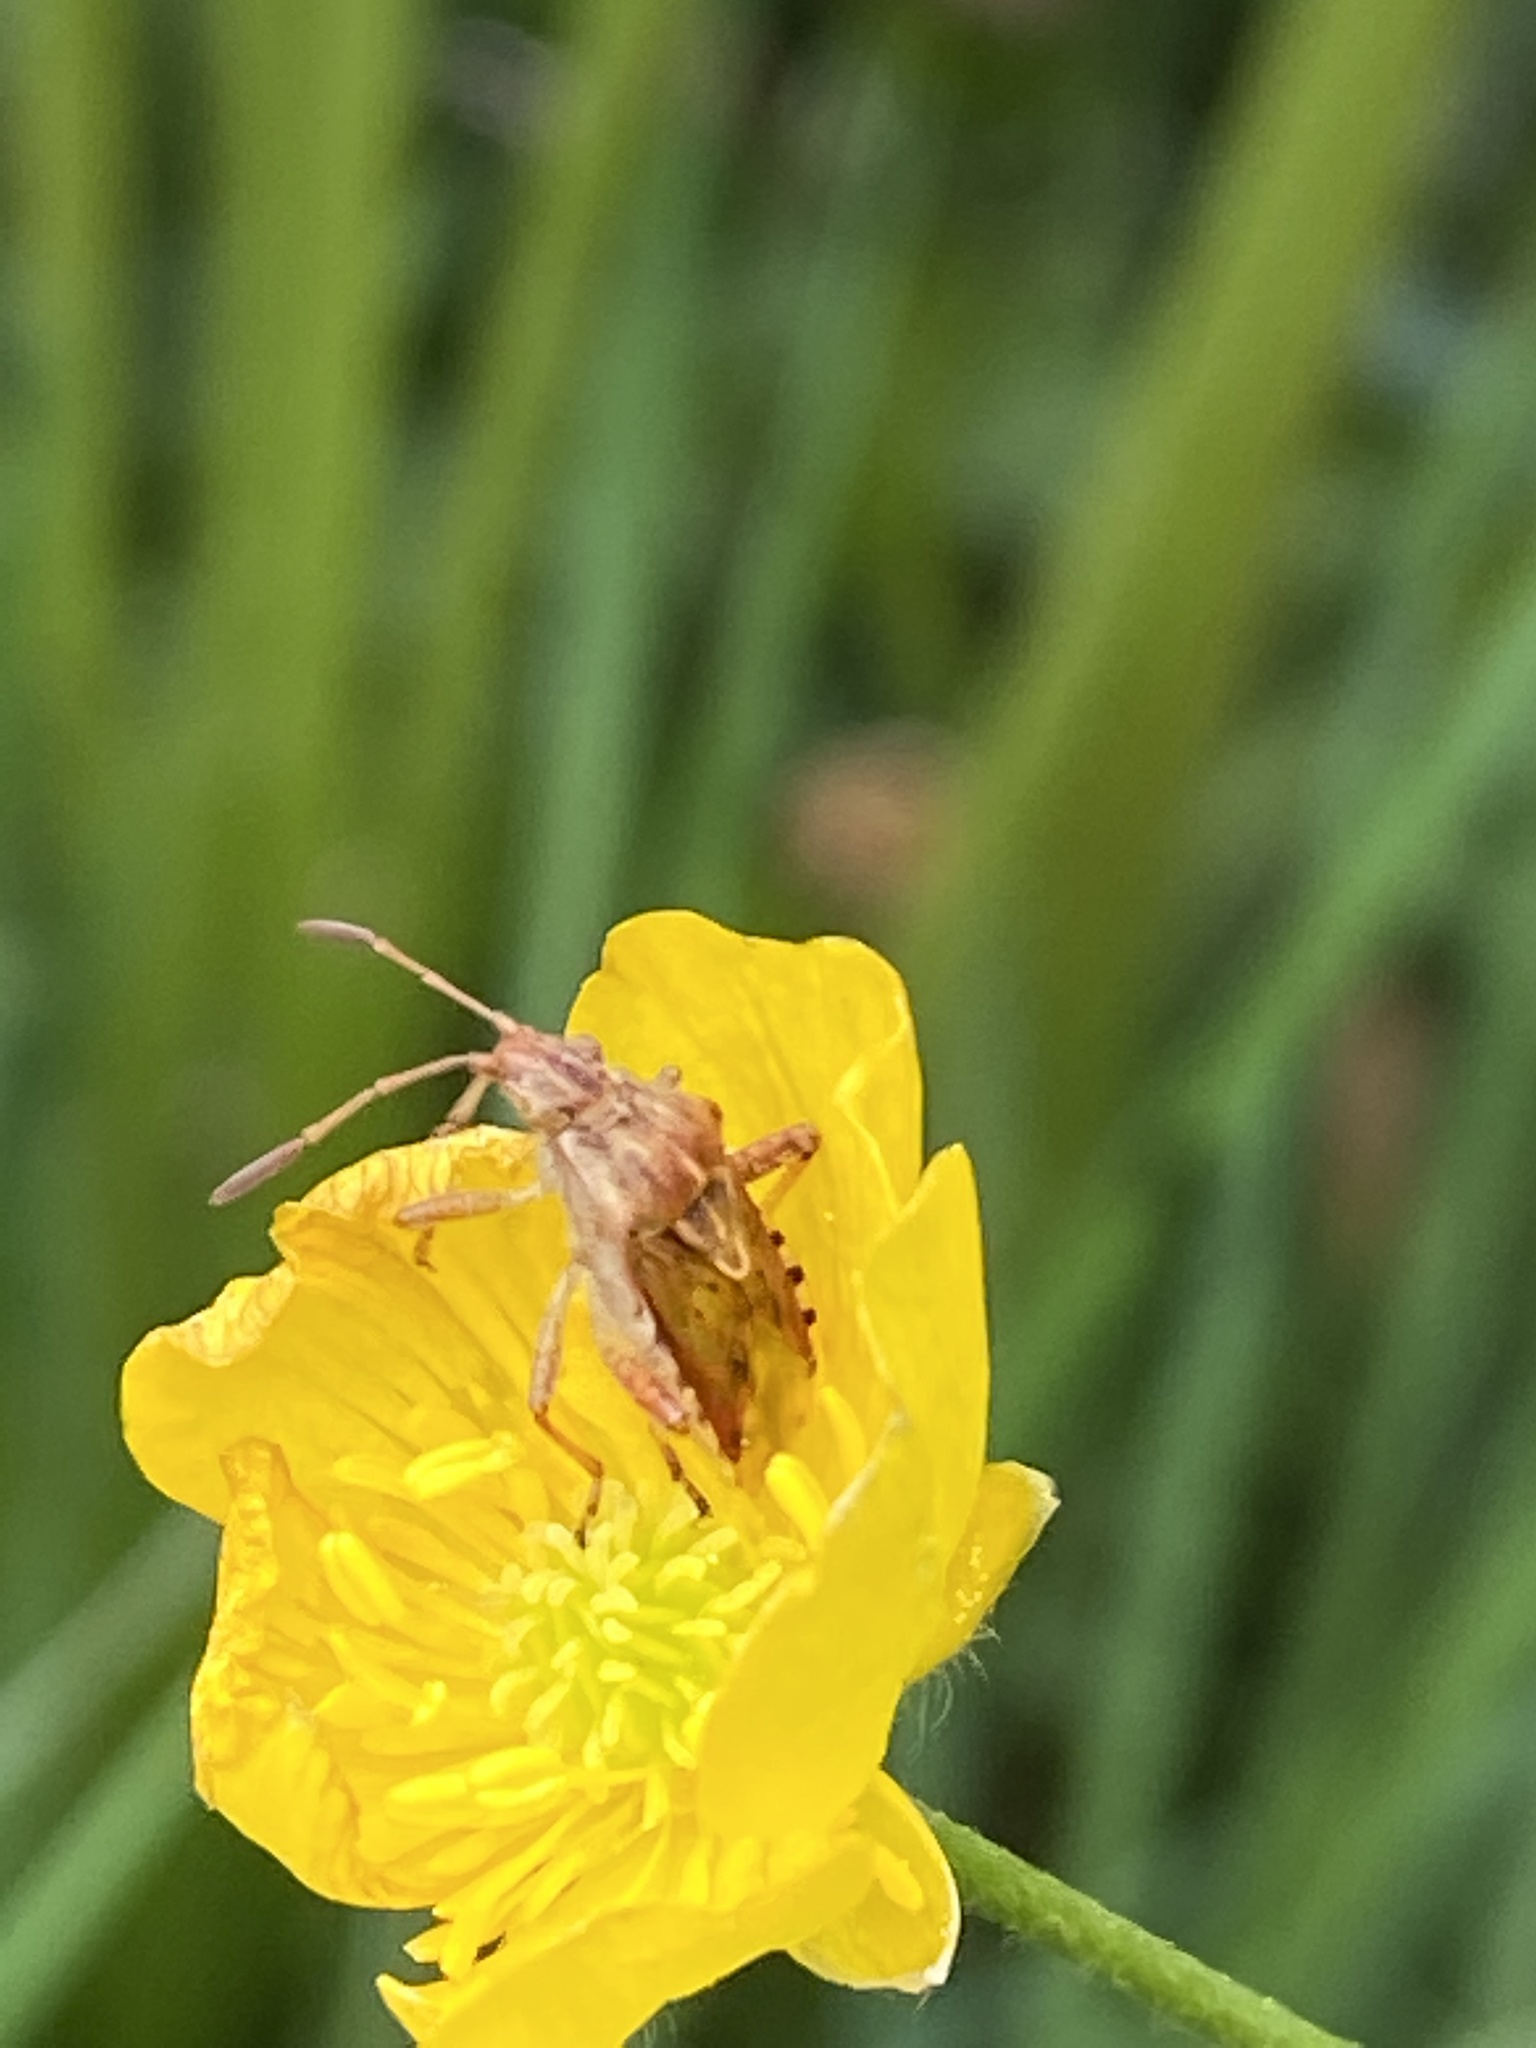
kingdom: Animalia
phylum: Arthropoda
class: Insecta
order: Hemiptera
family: Rhopalidae
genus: Stictopleurus
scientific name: Stictopleurus abutilon
